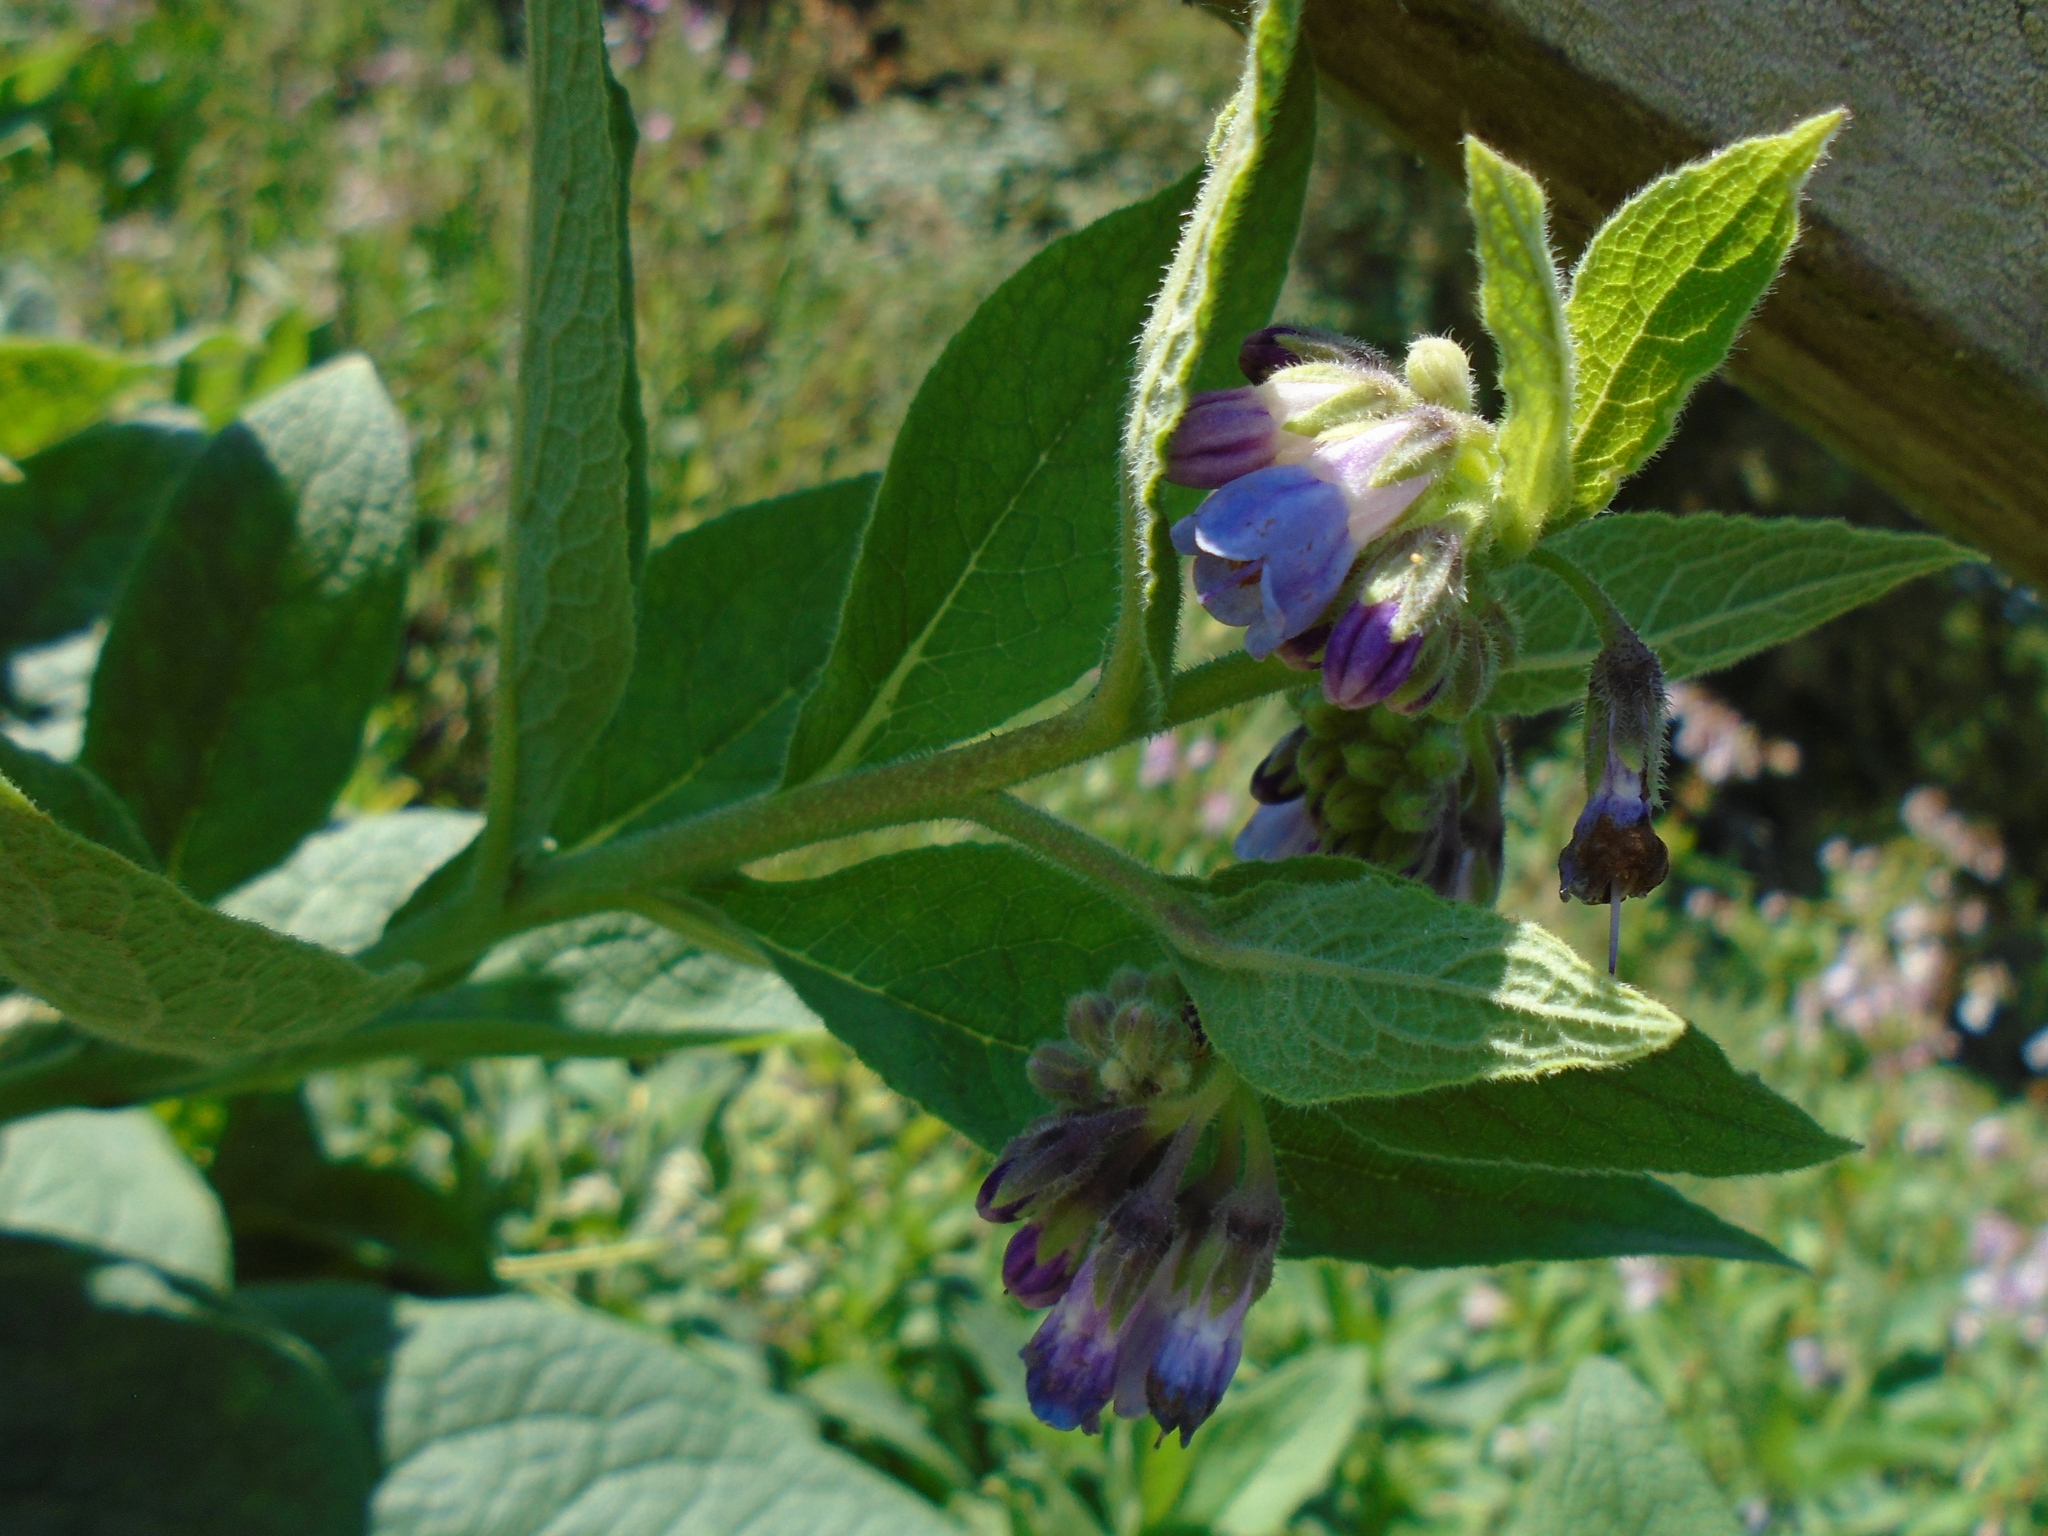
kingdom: Plantae
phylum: Tracheophyta
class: Magnoliopsida
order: Boraginales
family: Boraginaceae
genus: Symphytum
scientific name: Symphytum uplandicum
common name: Russian comfrey
